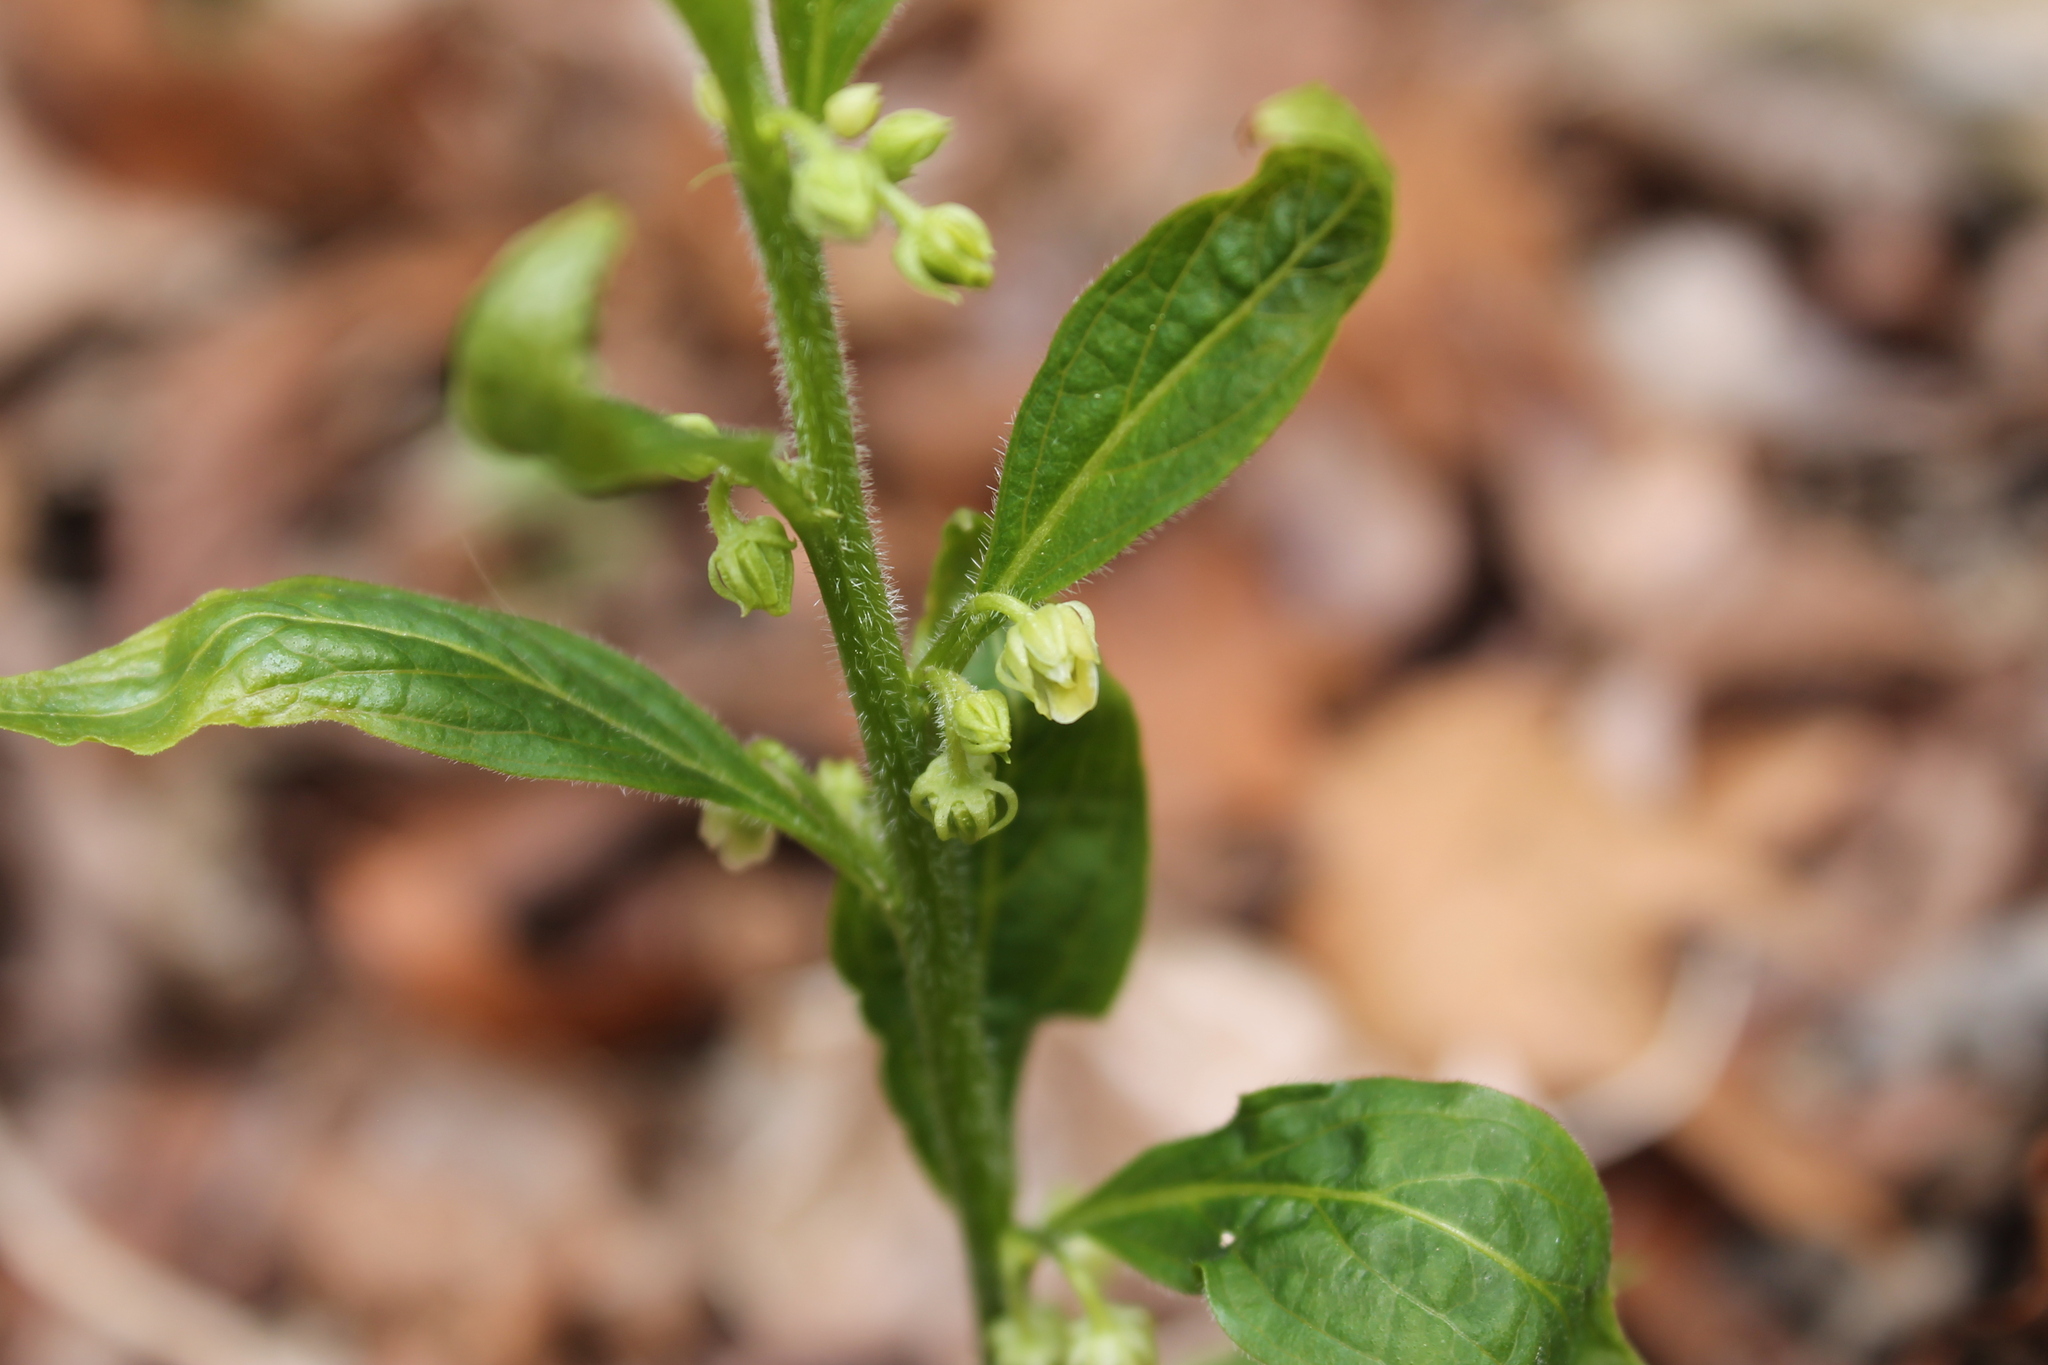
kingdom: Plantae
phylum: Tracheophyta
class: Magnoliopsida
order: Malpighiales
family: Violaceae
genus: Cubelium
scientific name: Cubelium concolor
